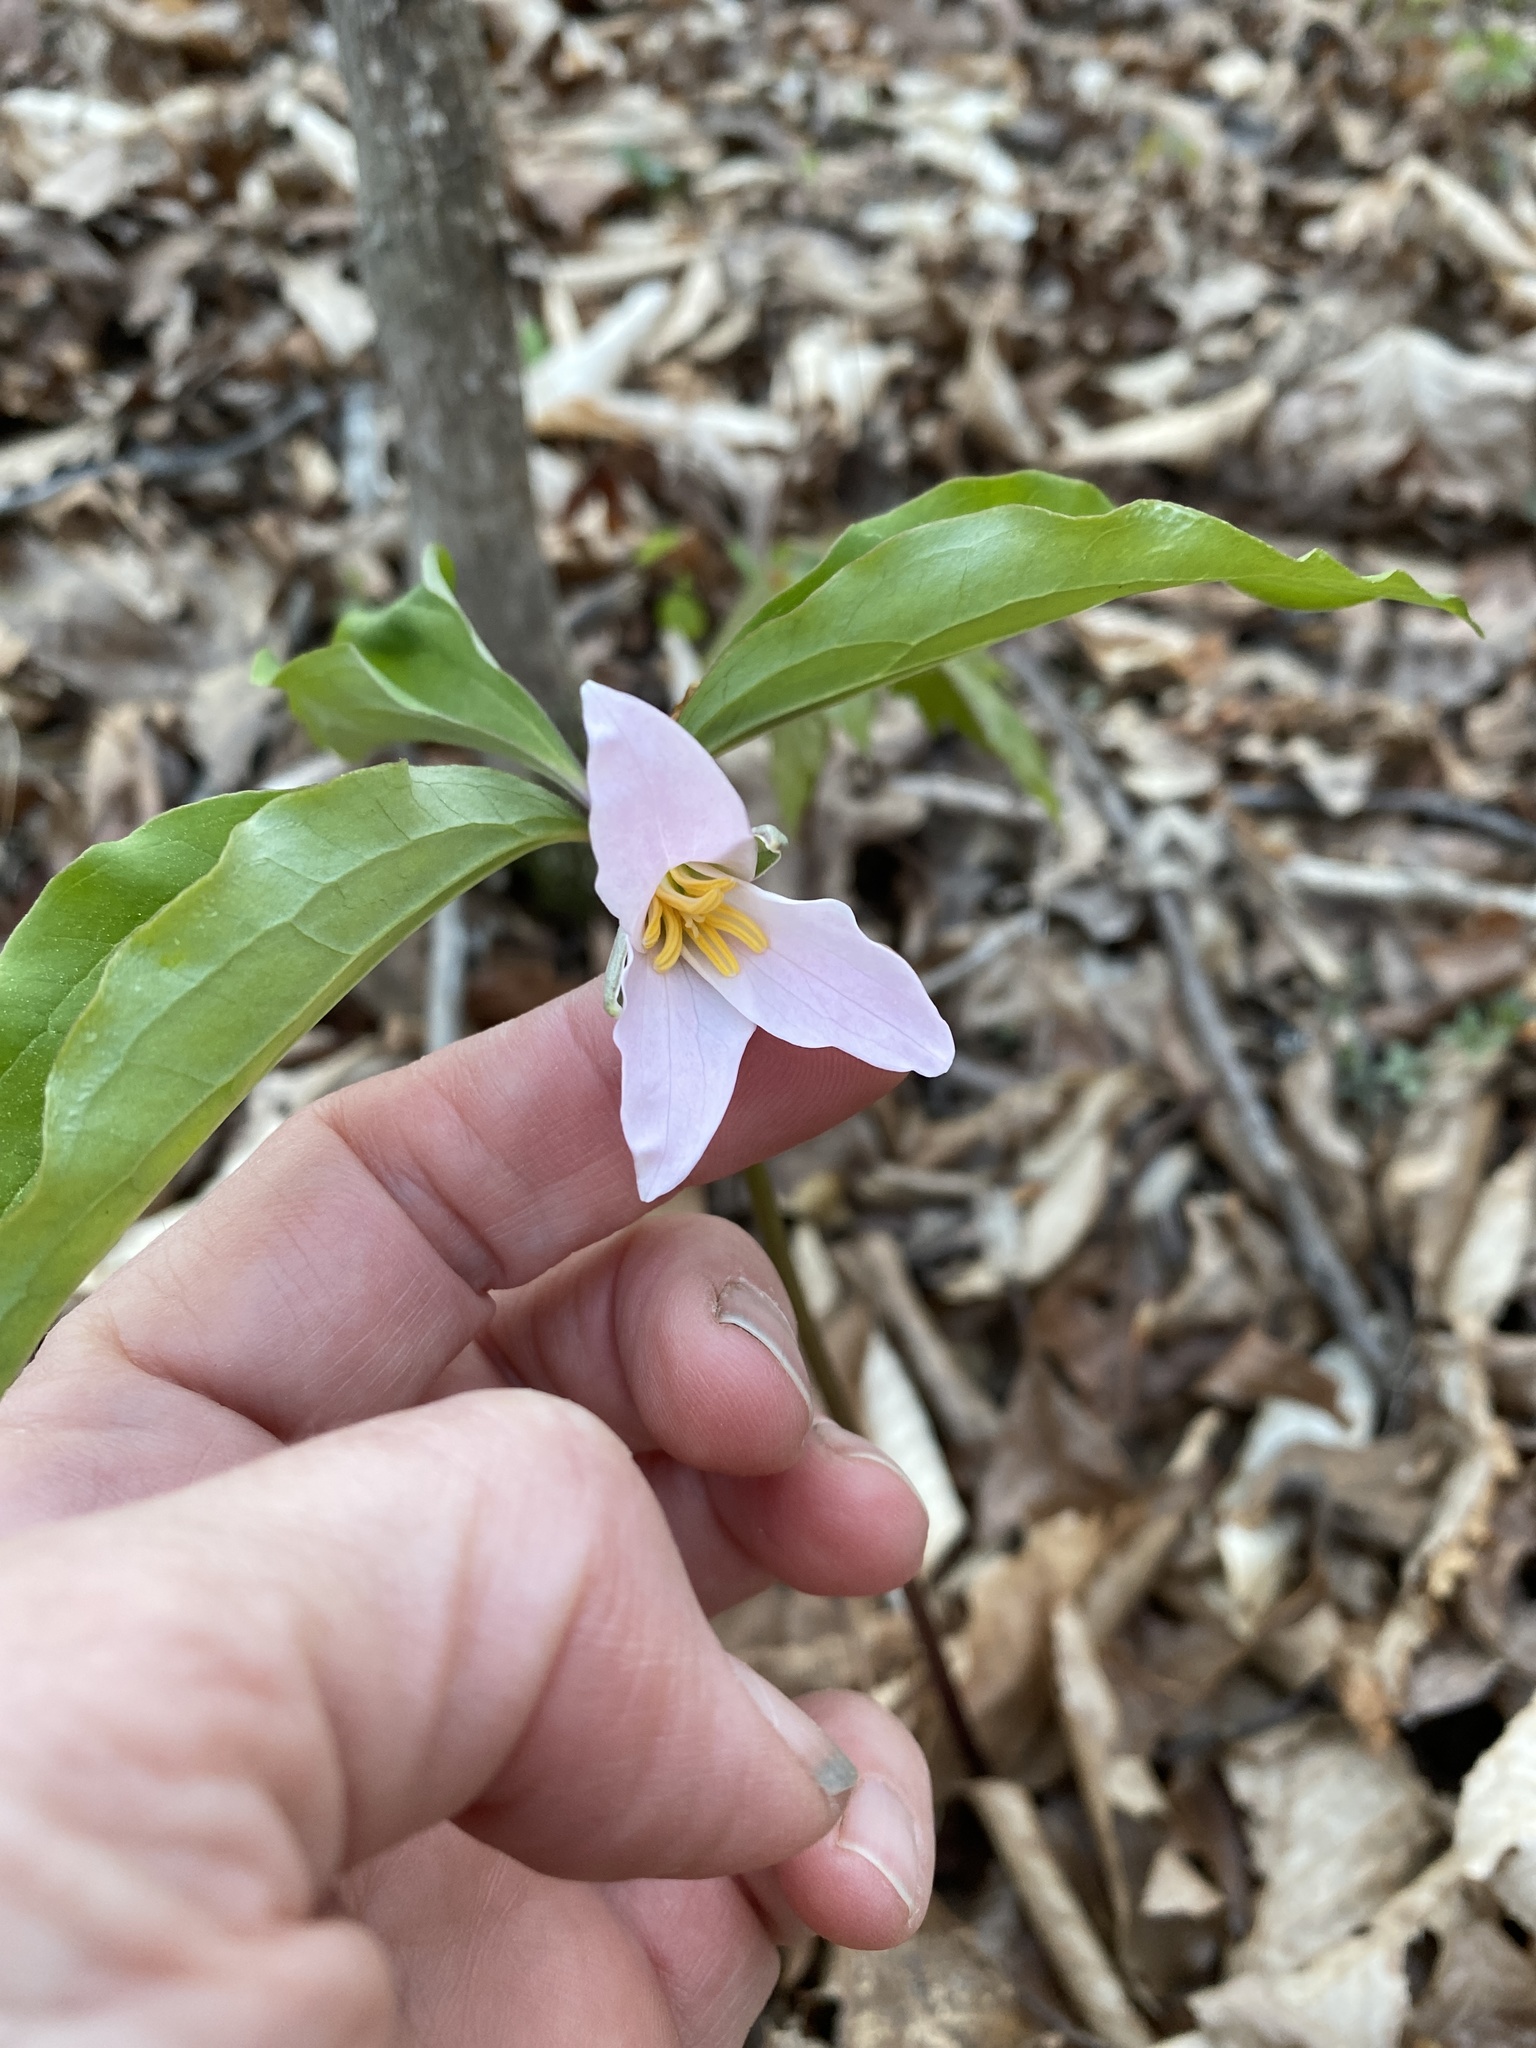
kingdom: Plantae
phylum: Tracheophyta
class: Liliopsida
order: Liliales
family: Melanthiaceae
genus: Trillium
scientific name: Trillium catesbaei
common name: Bashful trillium
